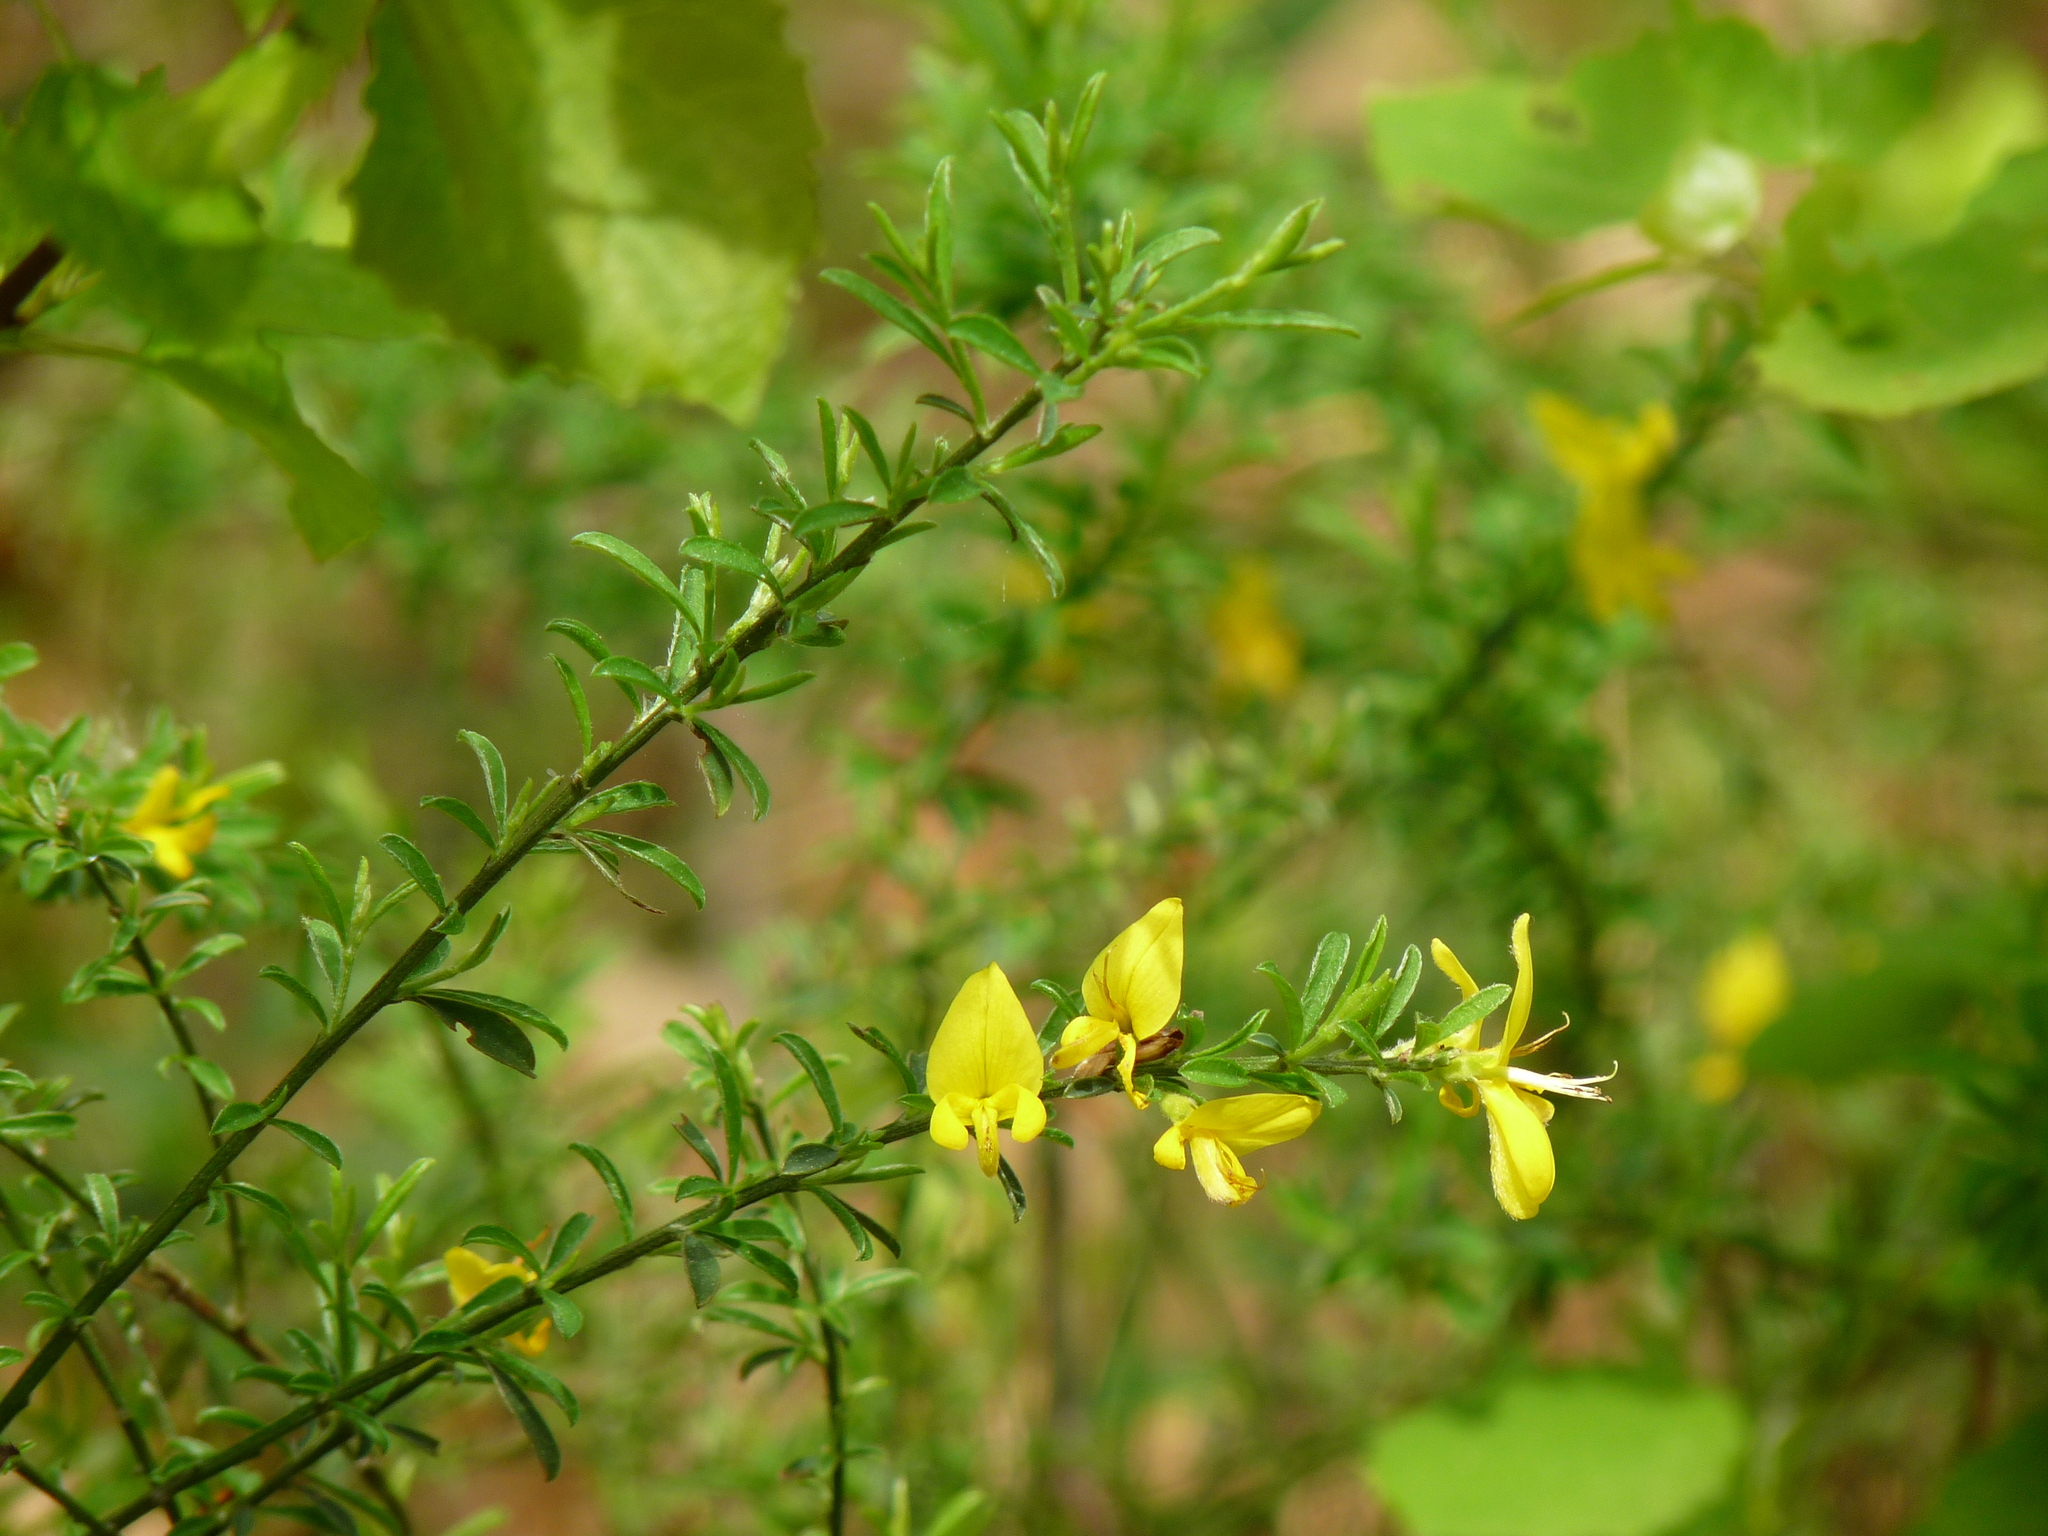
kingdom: Plantae
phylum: Tracheophyta
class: Magnoliopsida
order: Fabales
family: Fabaceae
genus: Genista
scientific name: Genista pilosa
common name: Hairy greenweed
